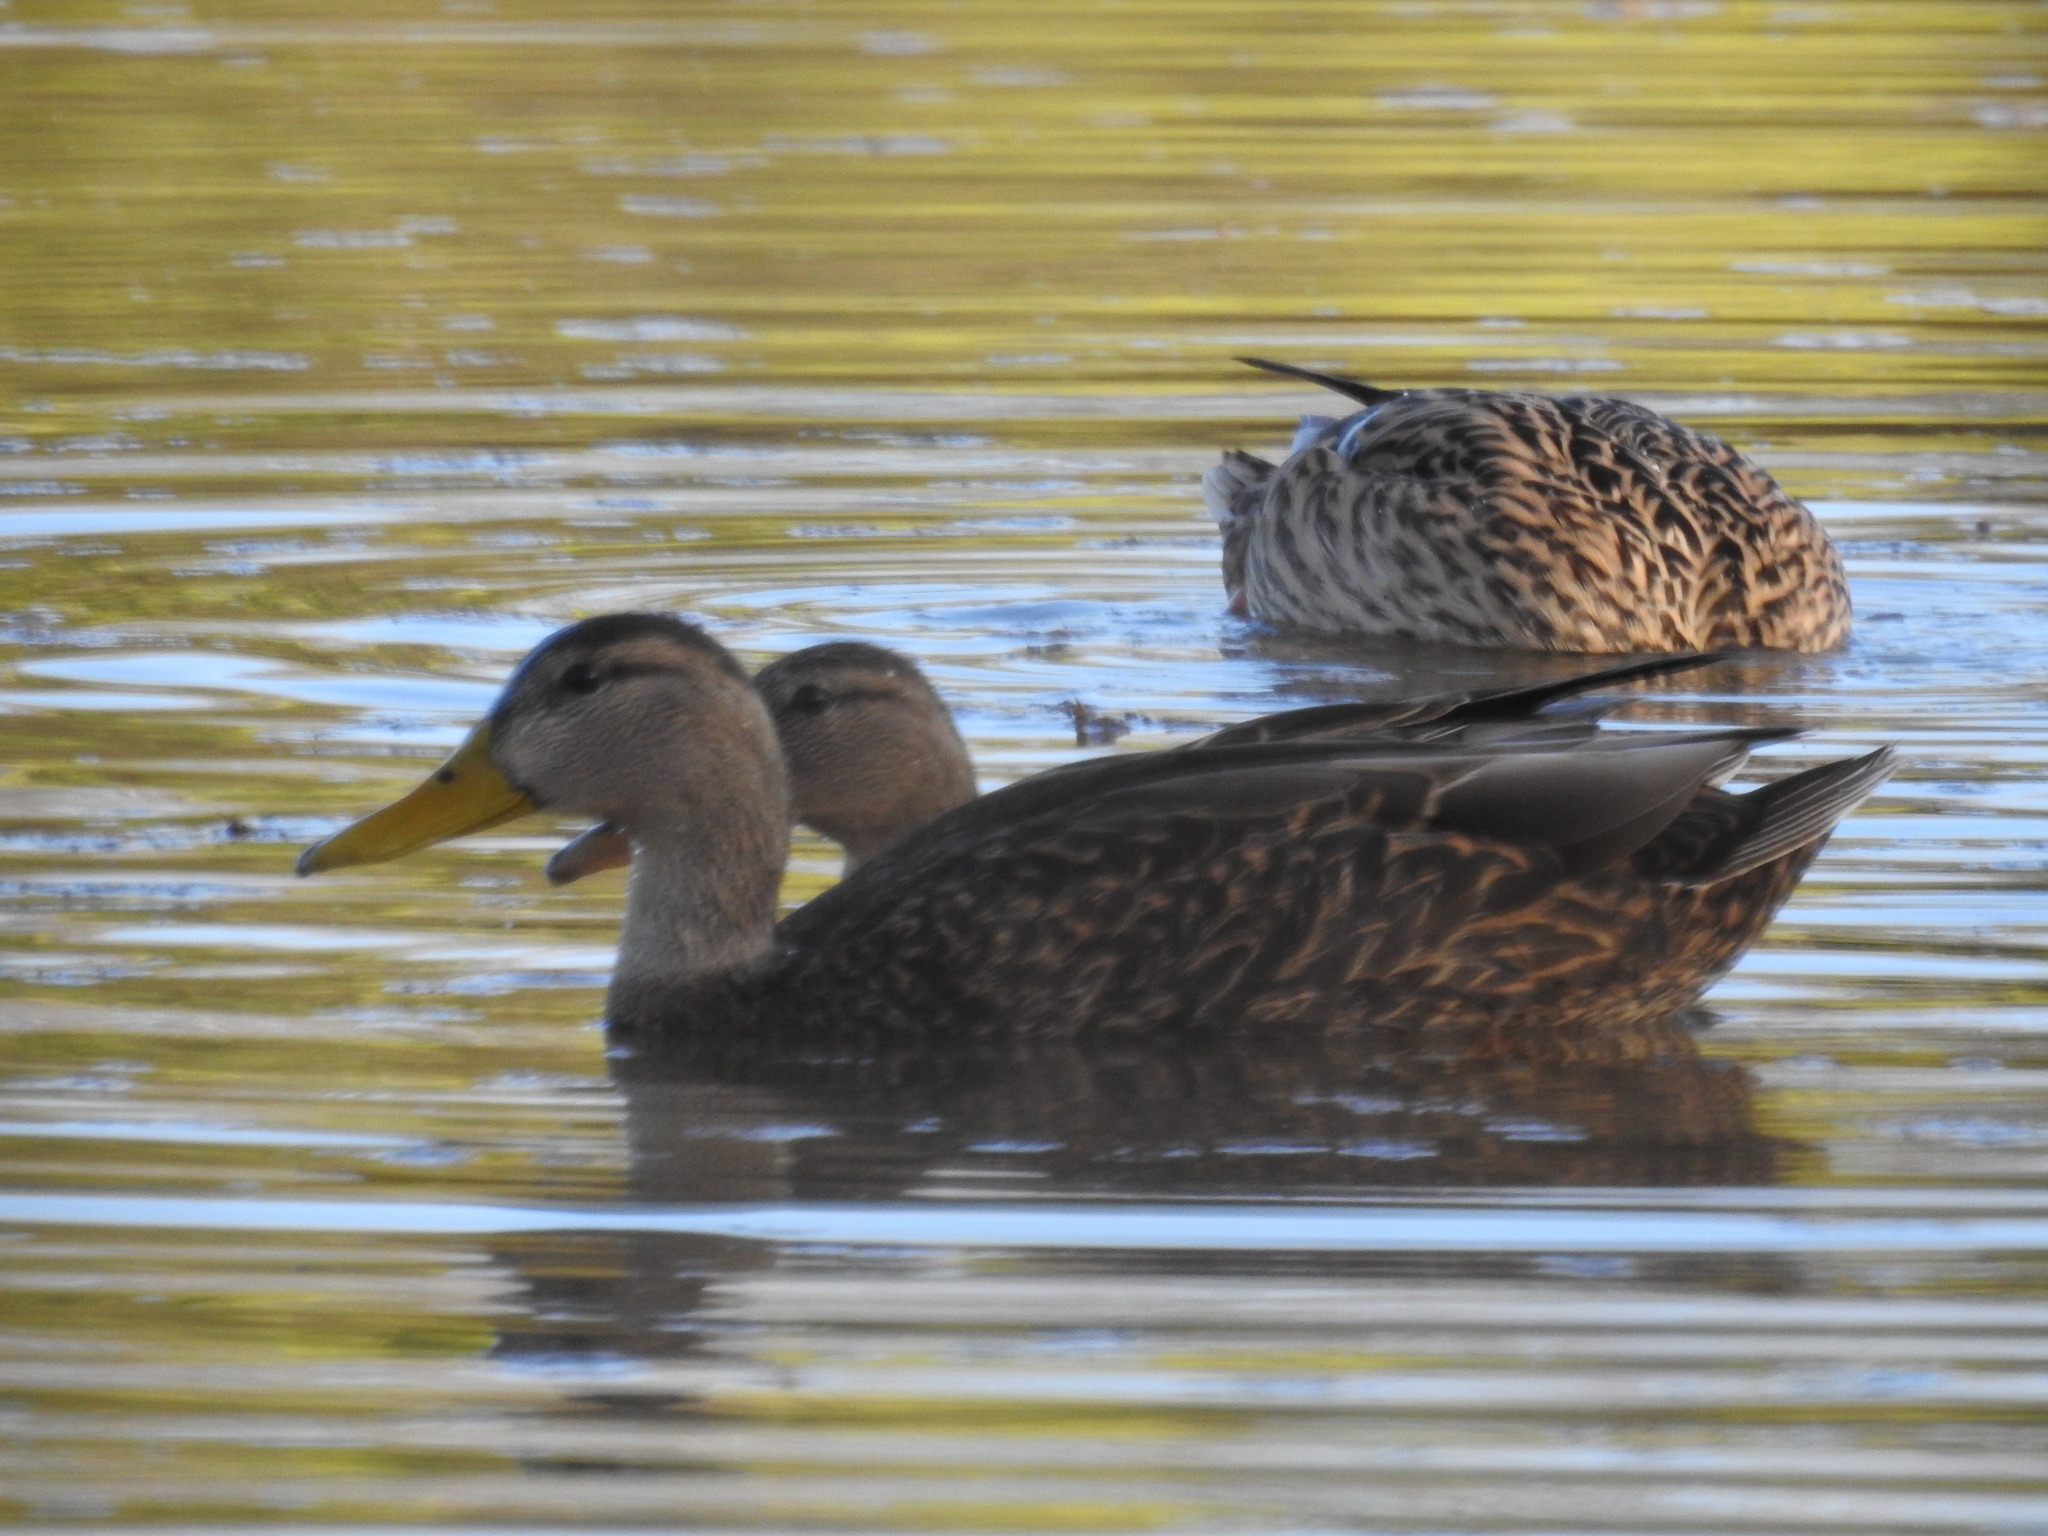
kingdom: Animalia
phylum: Chordata
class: Aves
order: Anseriformes
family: Anatidae
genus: Anas
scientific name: Anas diazi
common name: Mexican duck
